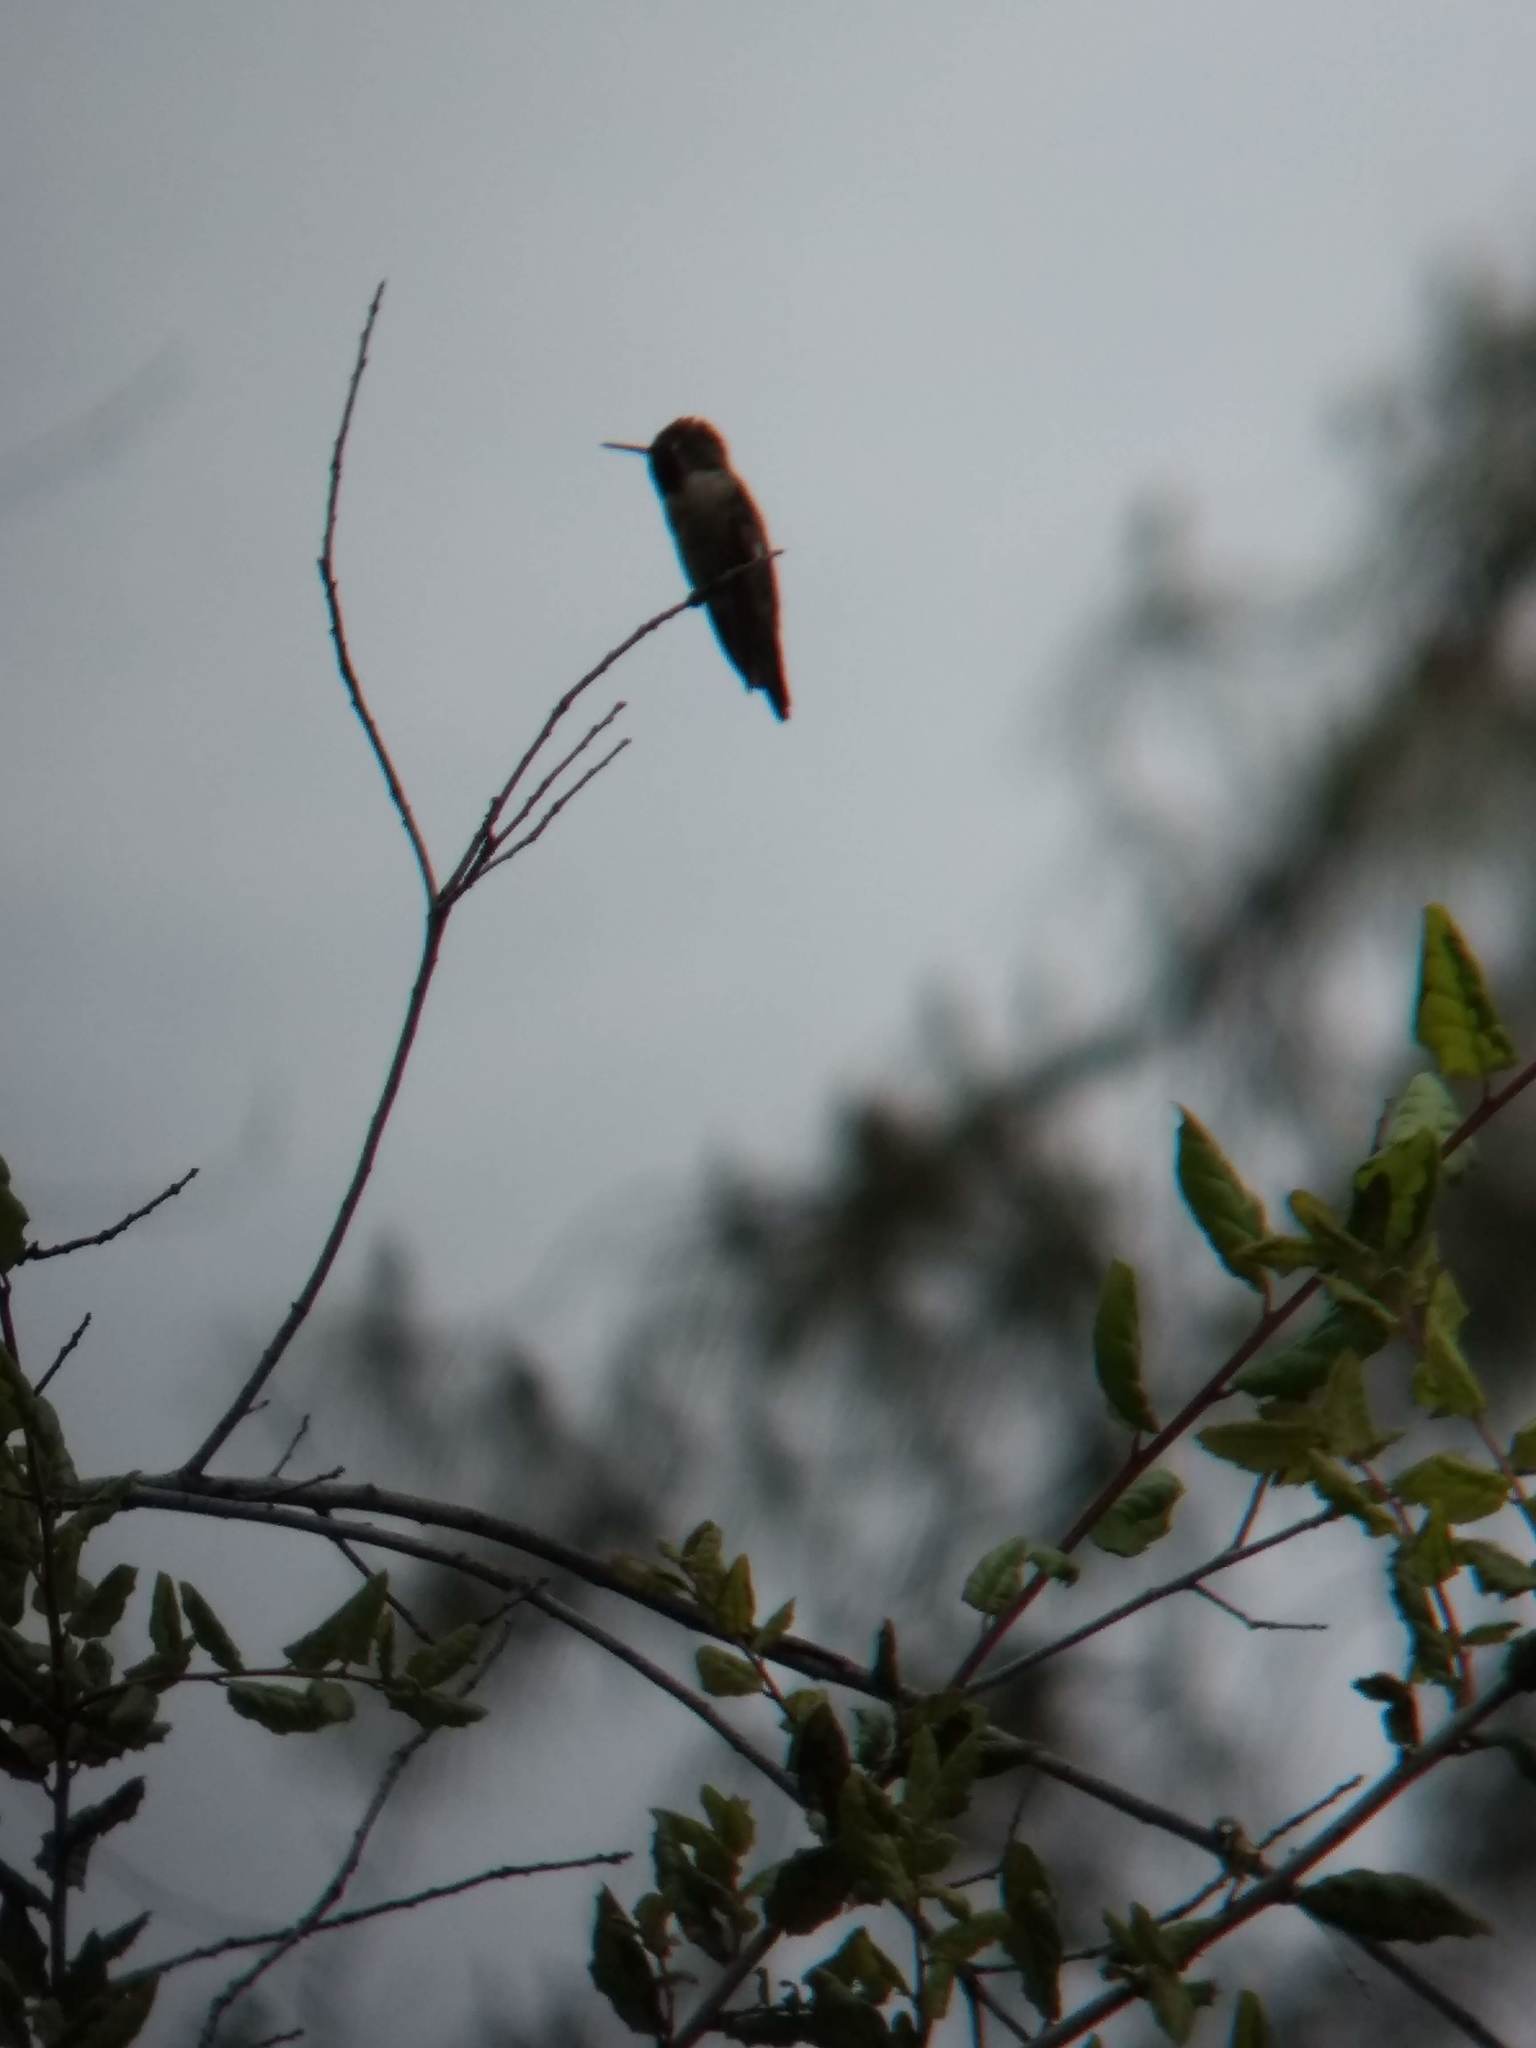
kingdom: Animalia
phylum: Chordata
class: Aves
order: Apodiformes
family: Trochilidae
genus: Calypte
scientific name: Calypte anna
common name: Anna's hummingbird
